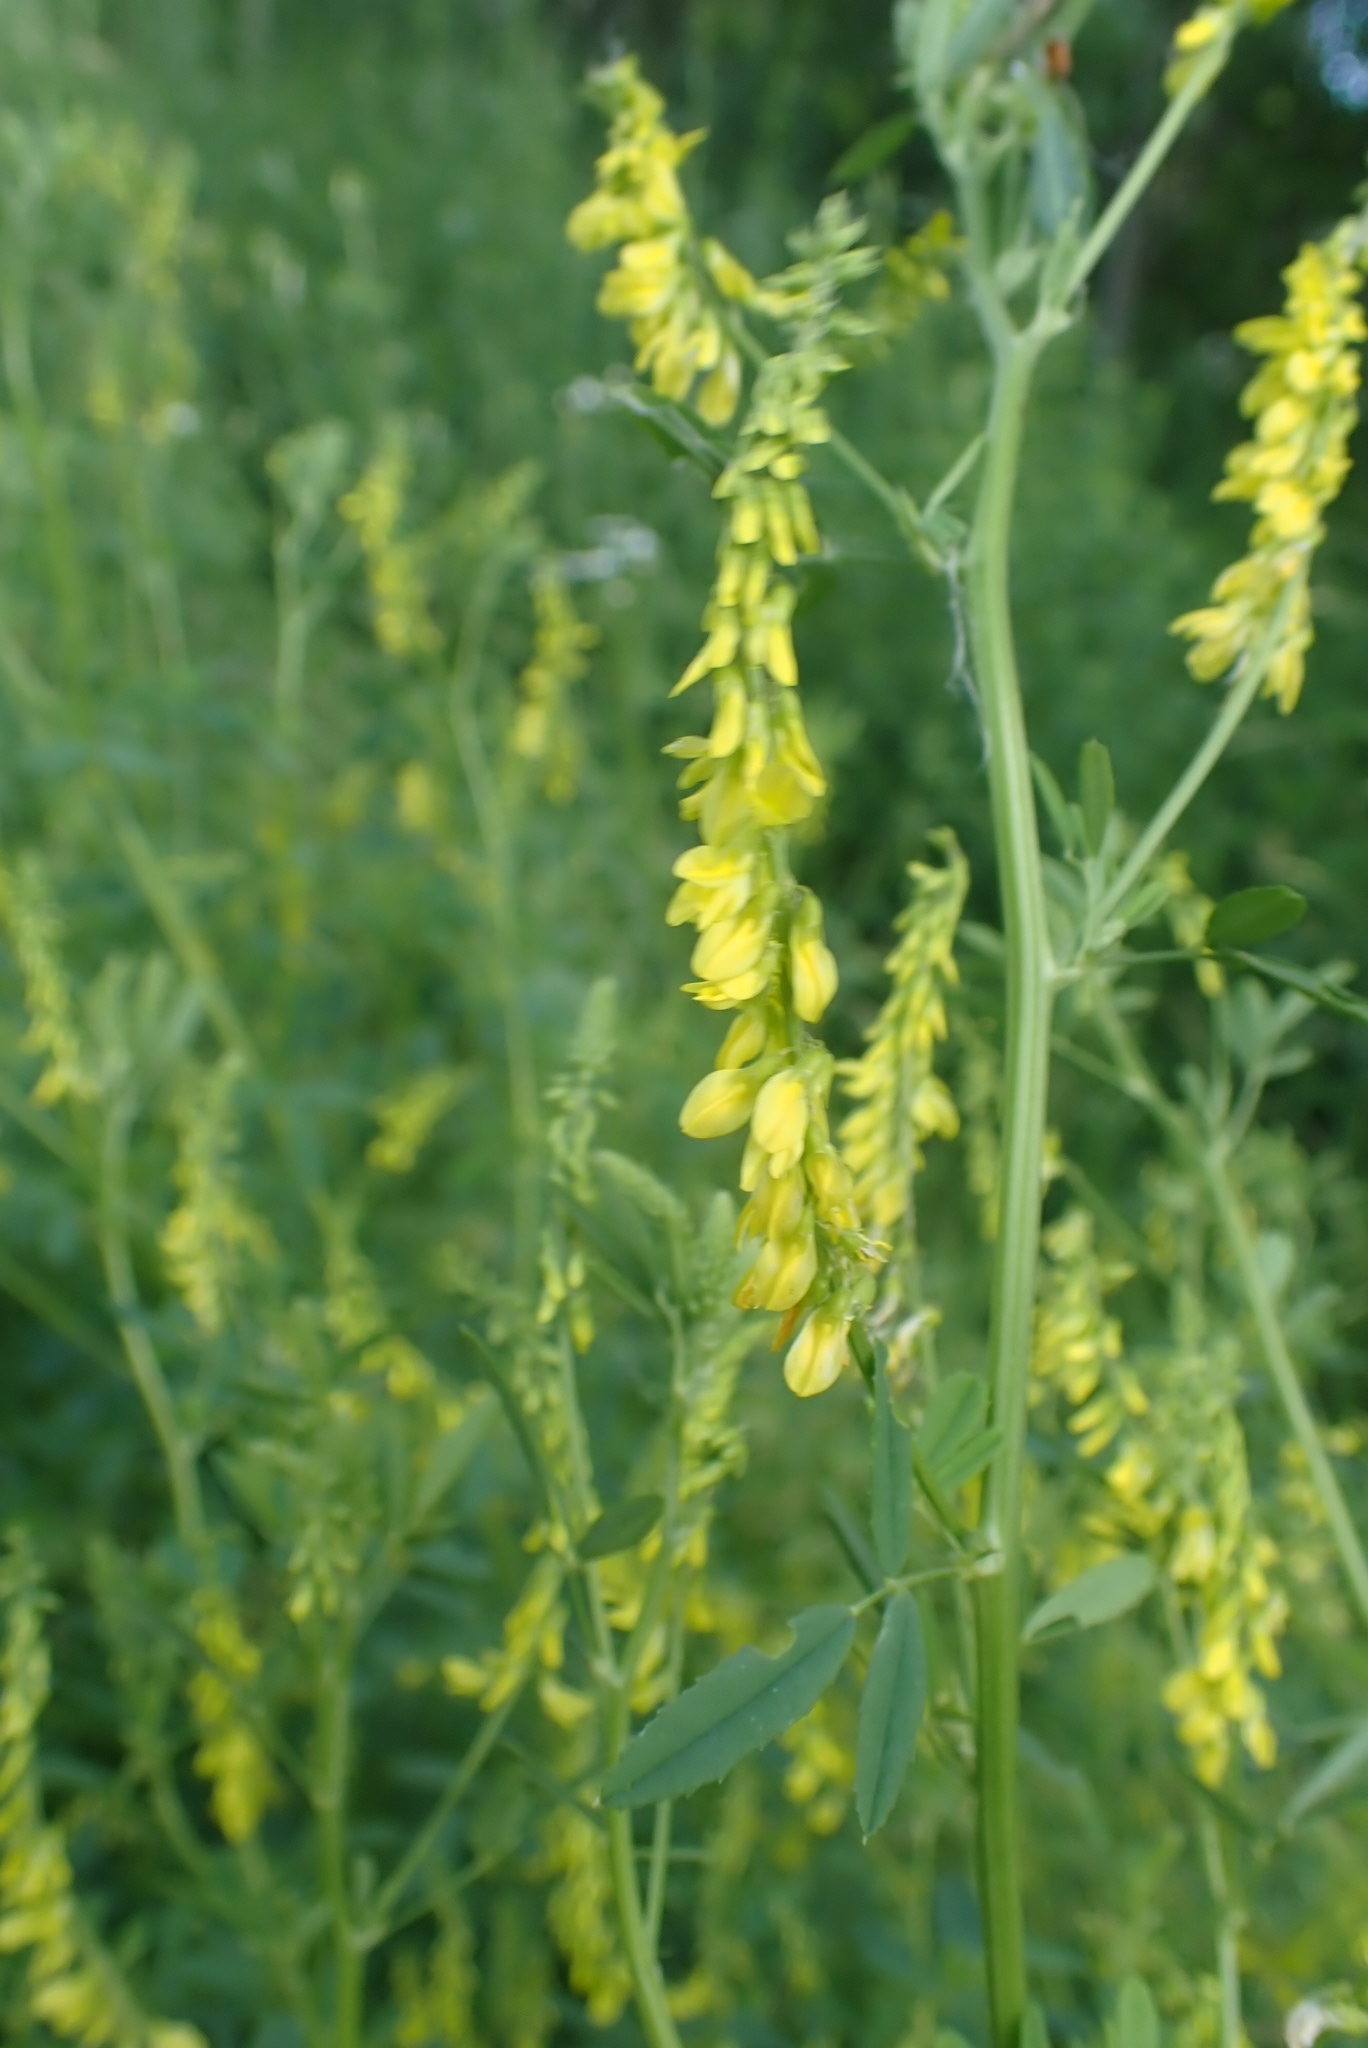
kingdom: Plantae
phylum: Tracheophyta
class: Magnoliopsida
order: Fabales
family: Fabaceae
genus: Melilotus
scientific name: Melilotus officinalis
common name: Sweetclover
